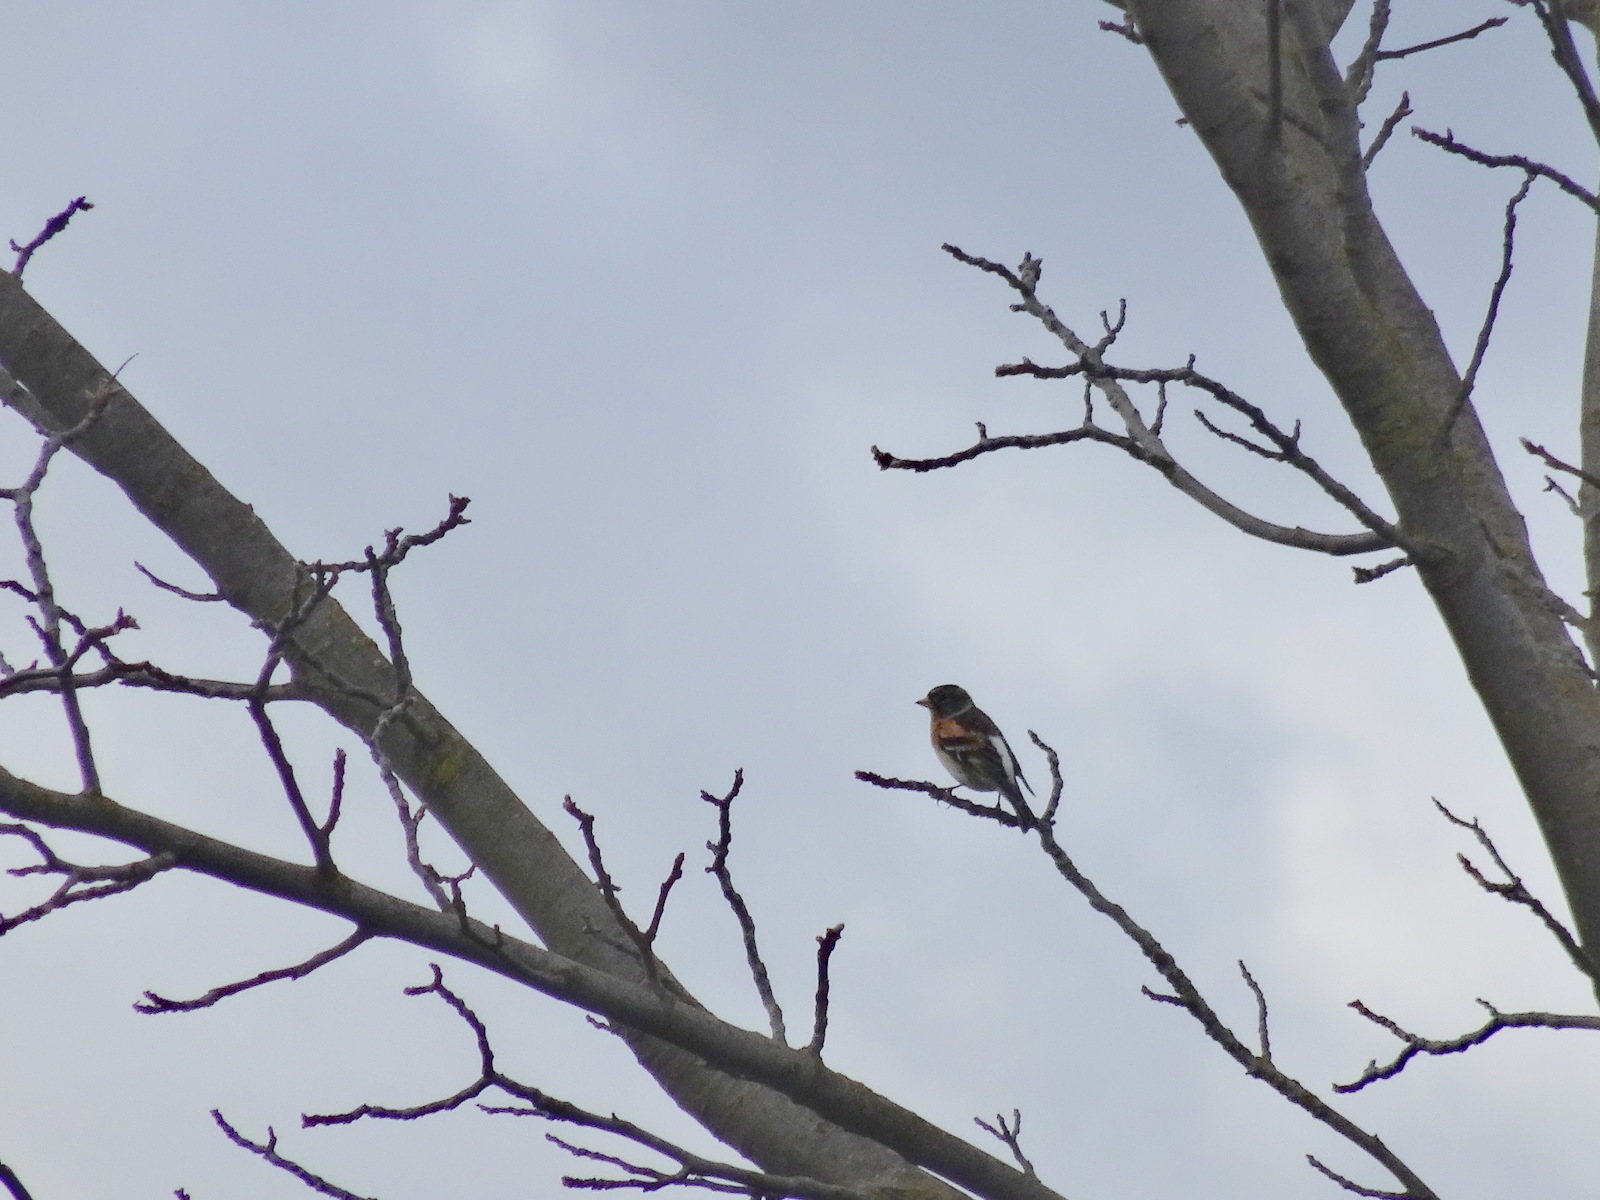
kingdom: Animalia
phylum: Chordata
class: Aves
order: Passeriformes
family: Fringillidae
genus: Fringilla
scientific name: Fringilla montifringilla
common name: Brambling
